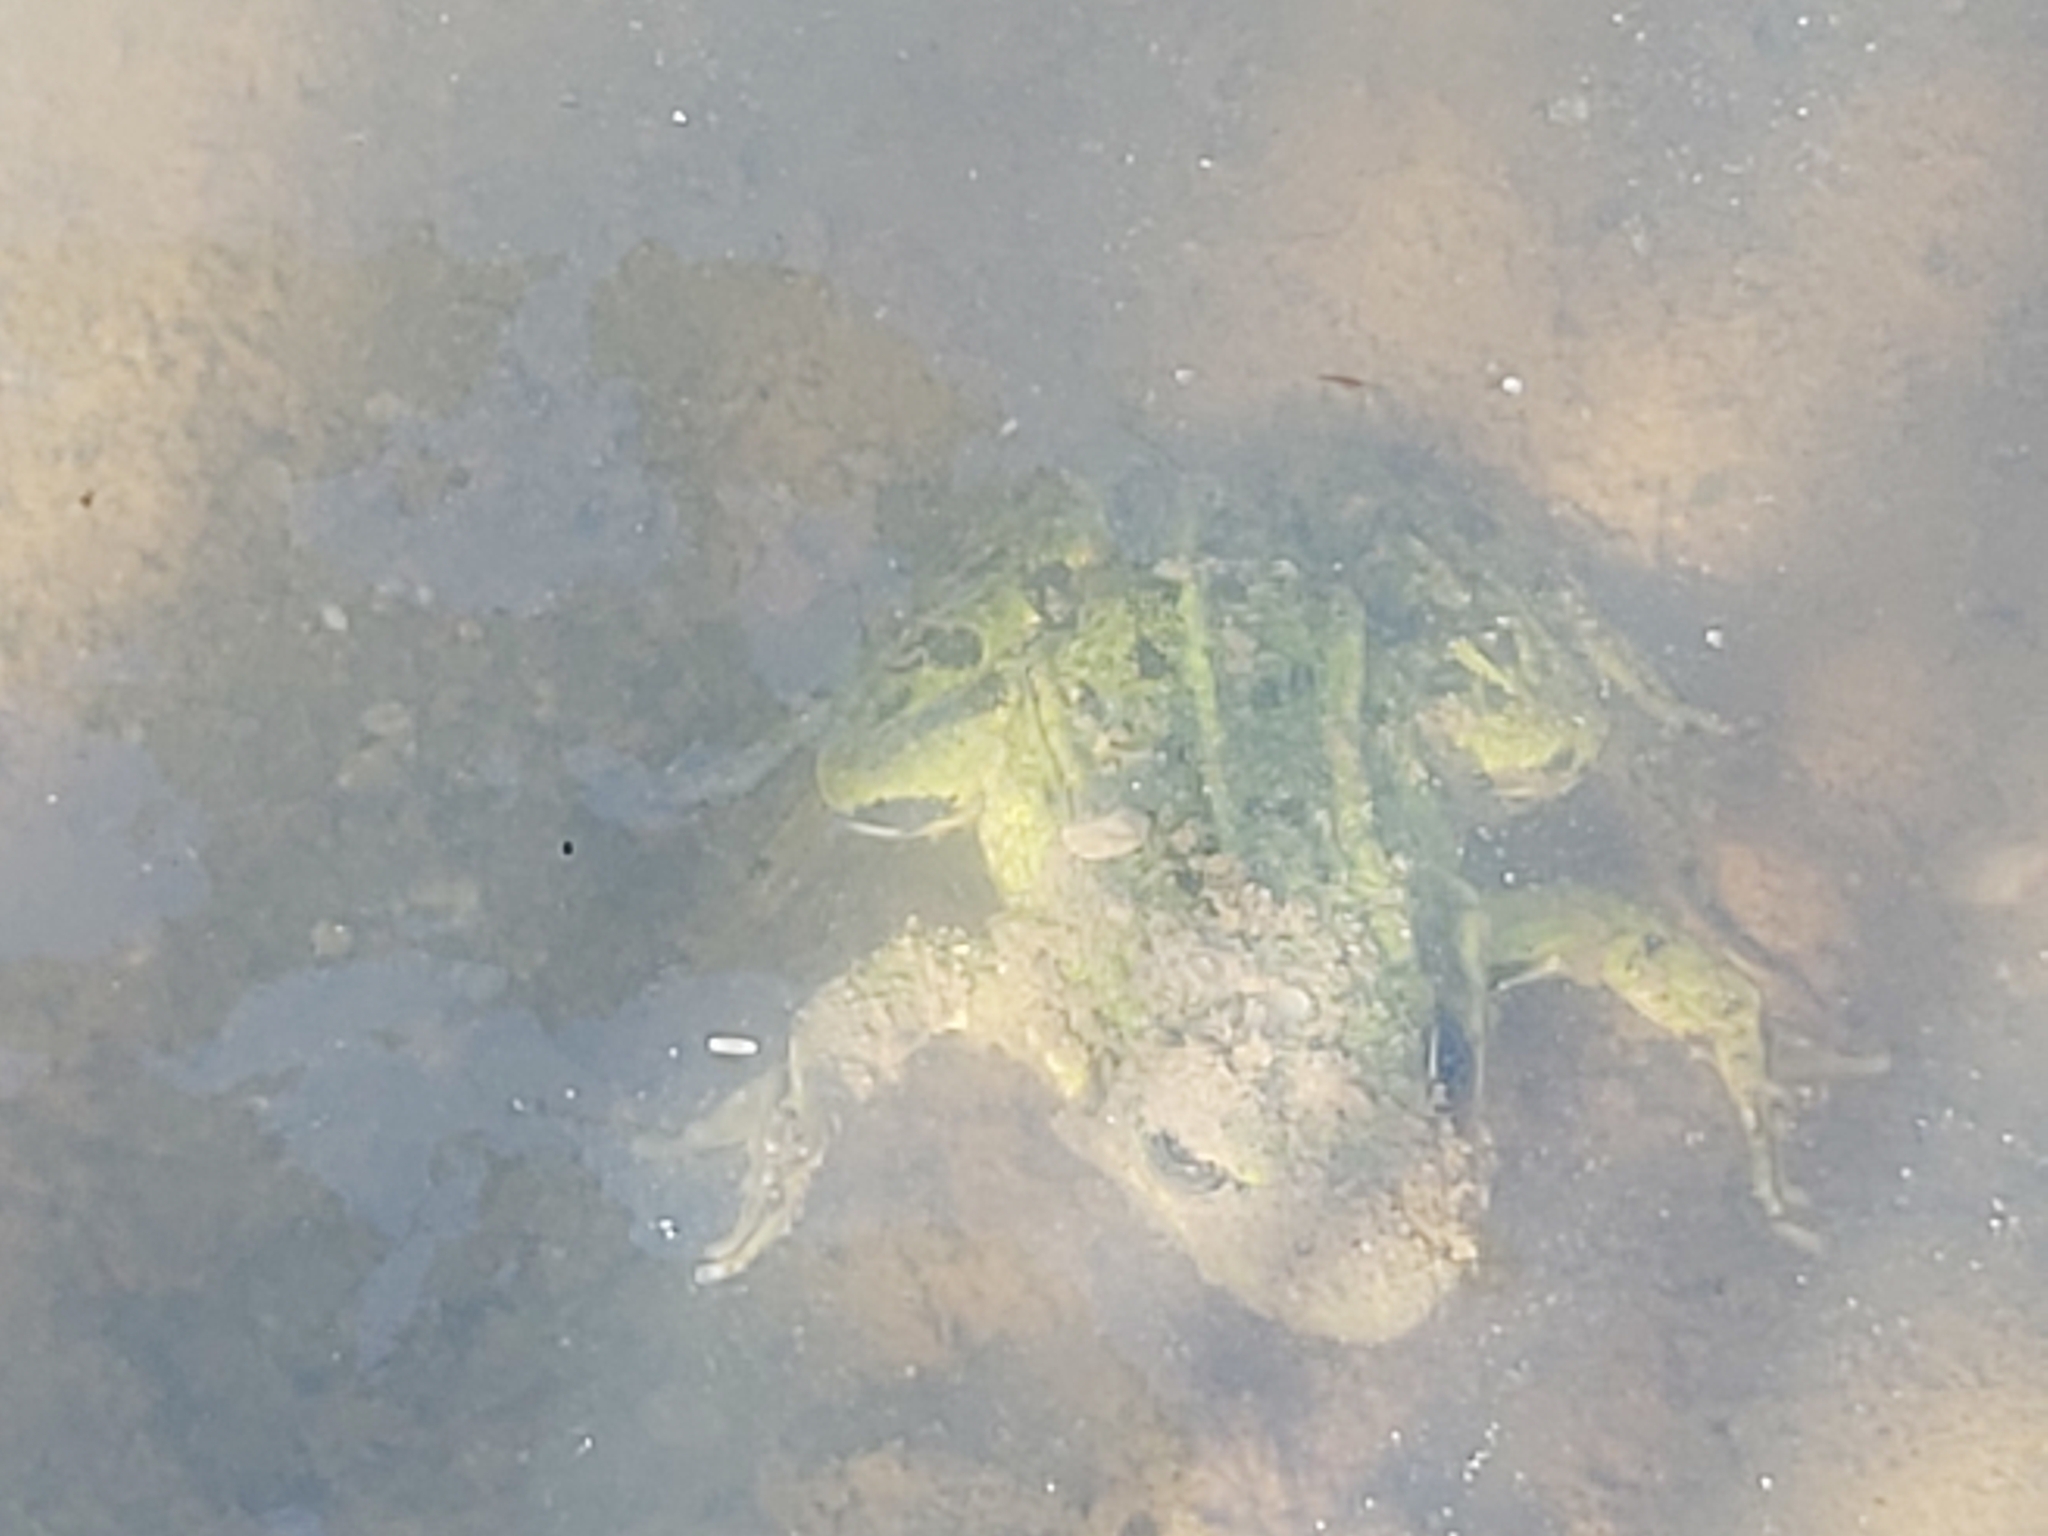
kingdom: Animalia
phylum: Chordata
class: Amphibia
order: Anura
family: Ranidae
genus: Pelophylax
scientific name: Pelophylax
